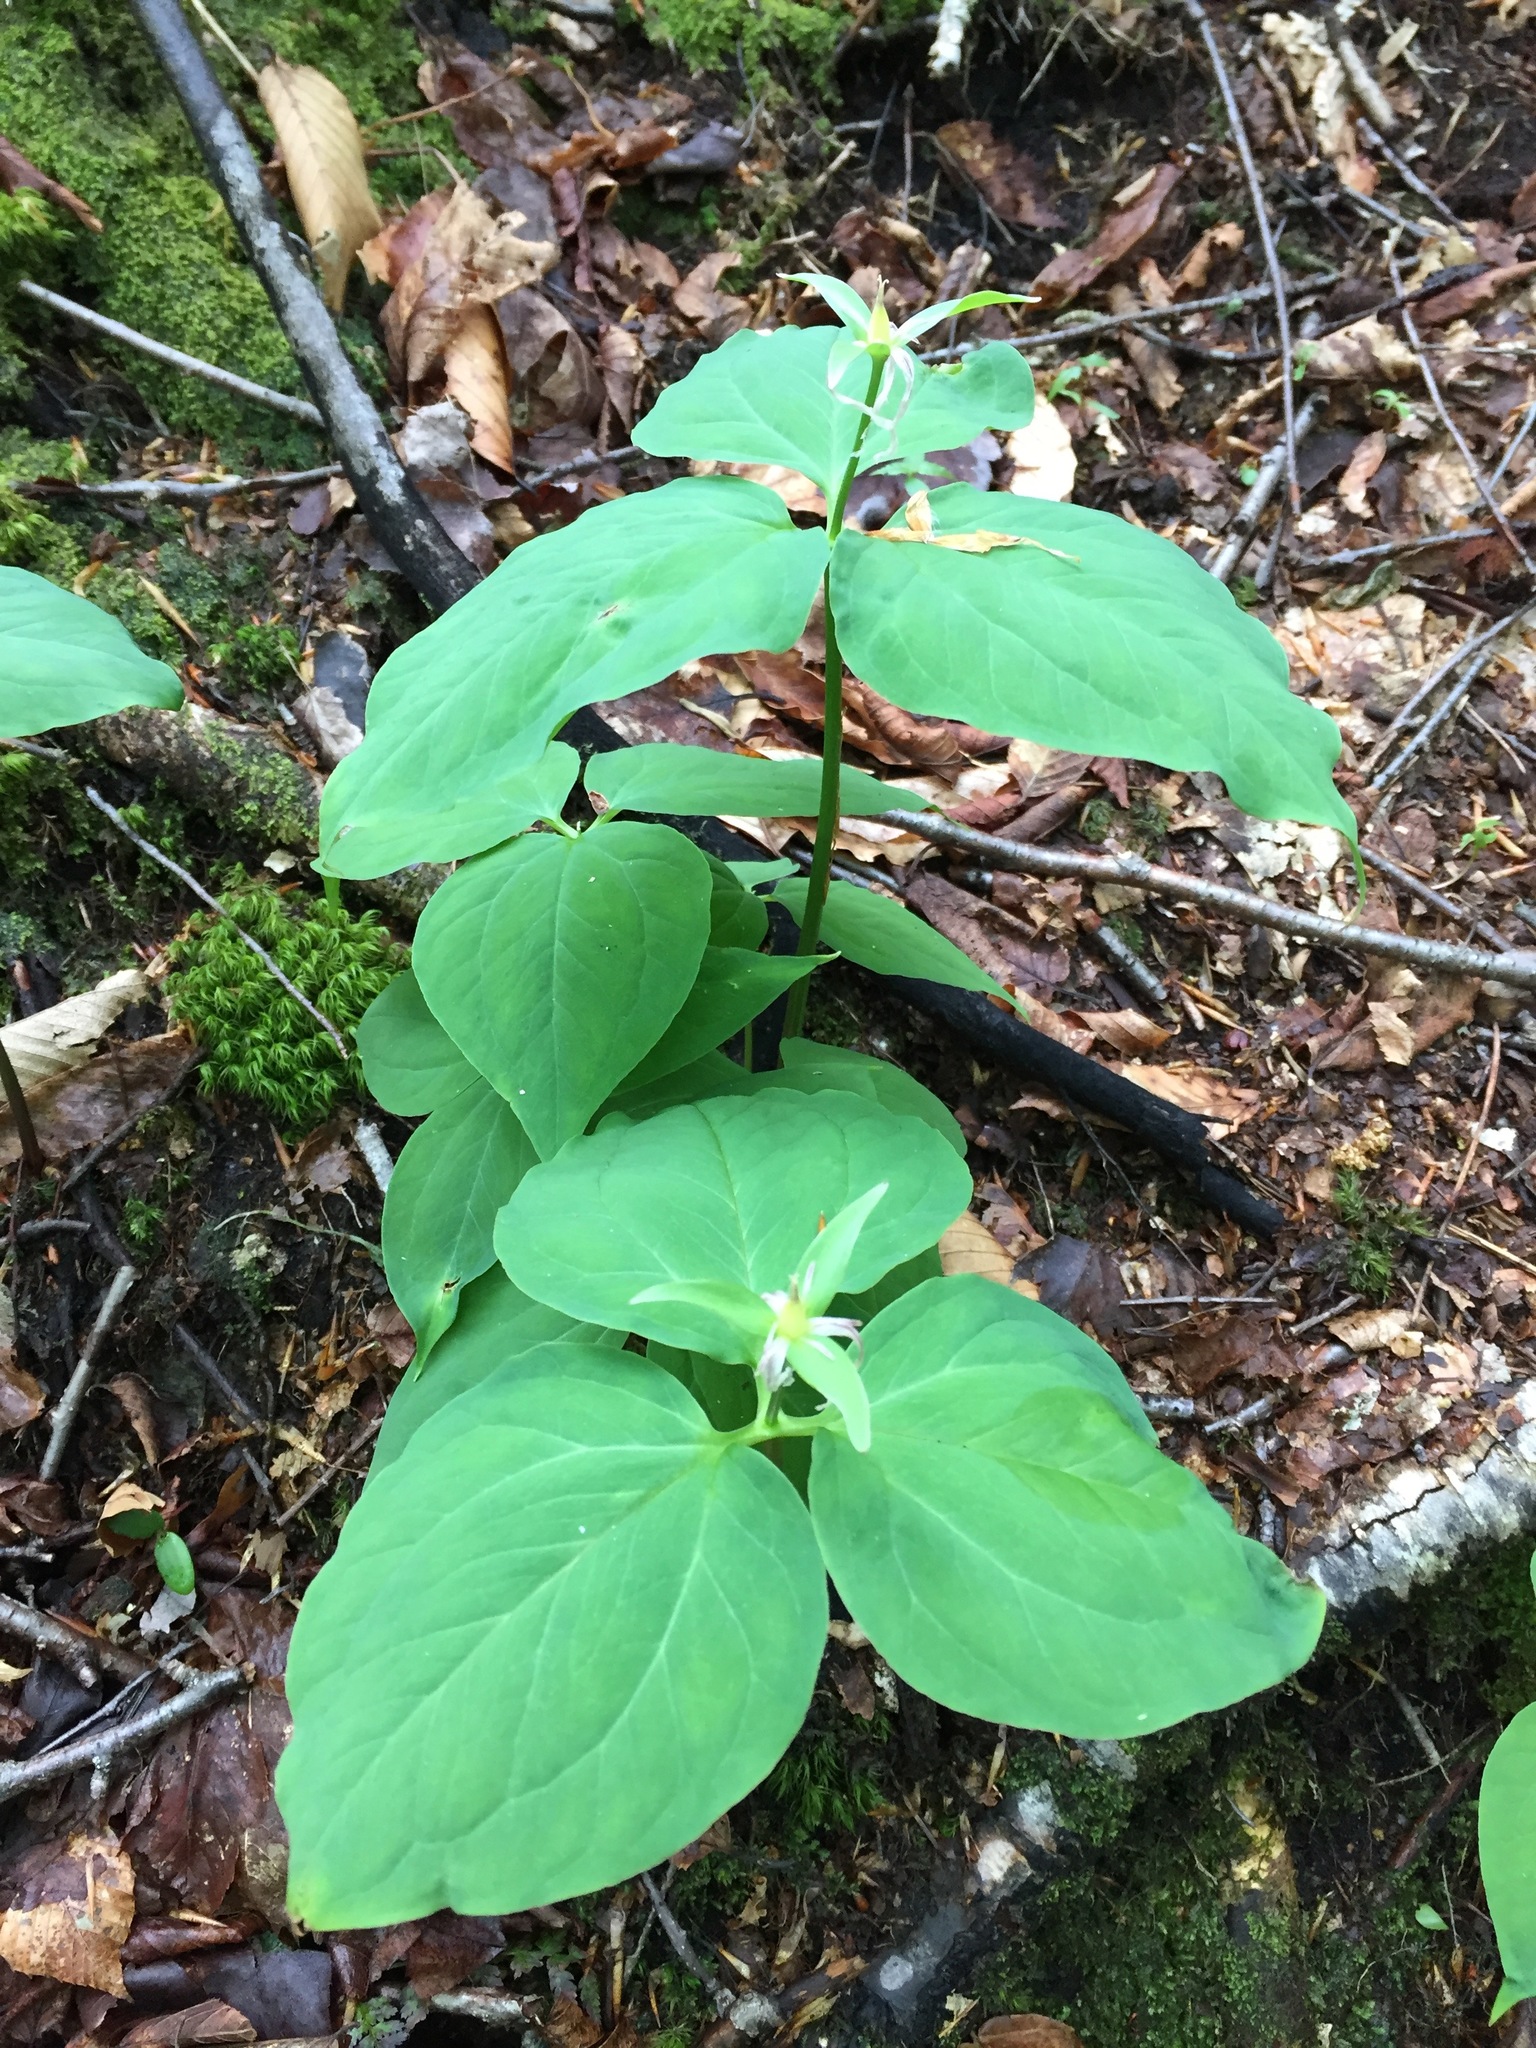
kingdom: Plantae
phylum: Tracheophyta
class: Liliopsida
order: Liliales
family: Melanthiaceae
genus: Trillium
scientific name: Trillium undulatum
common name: Paint trillium
